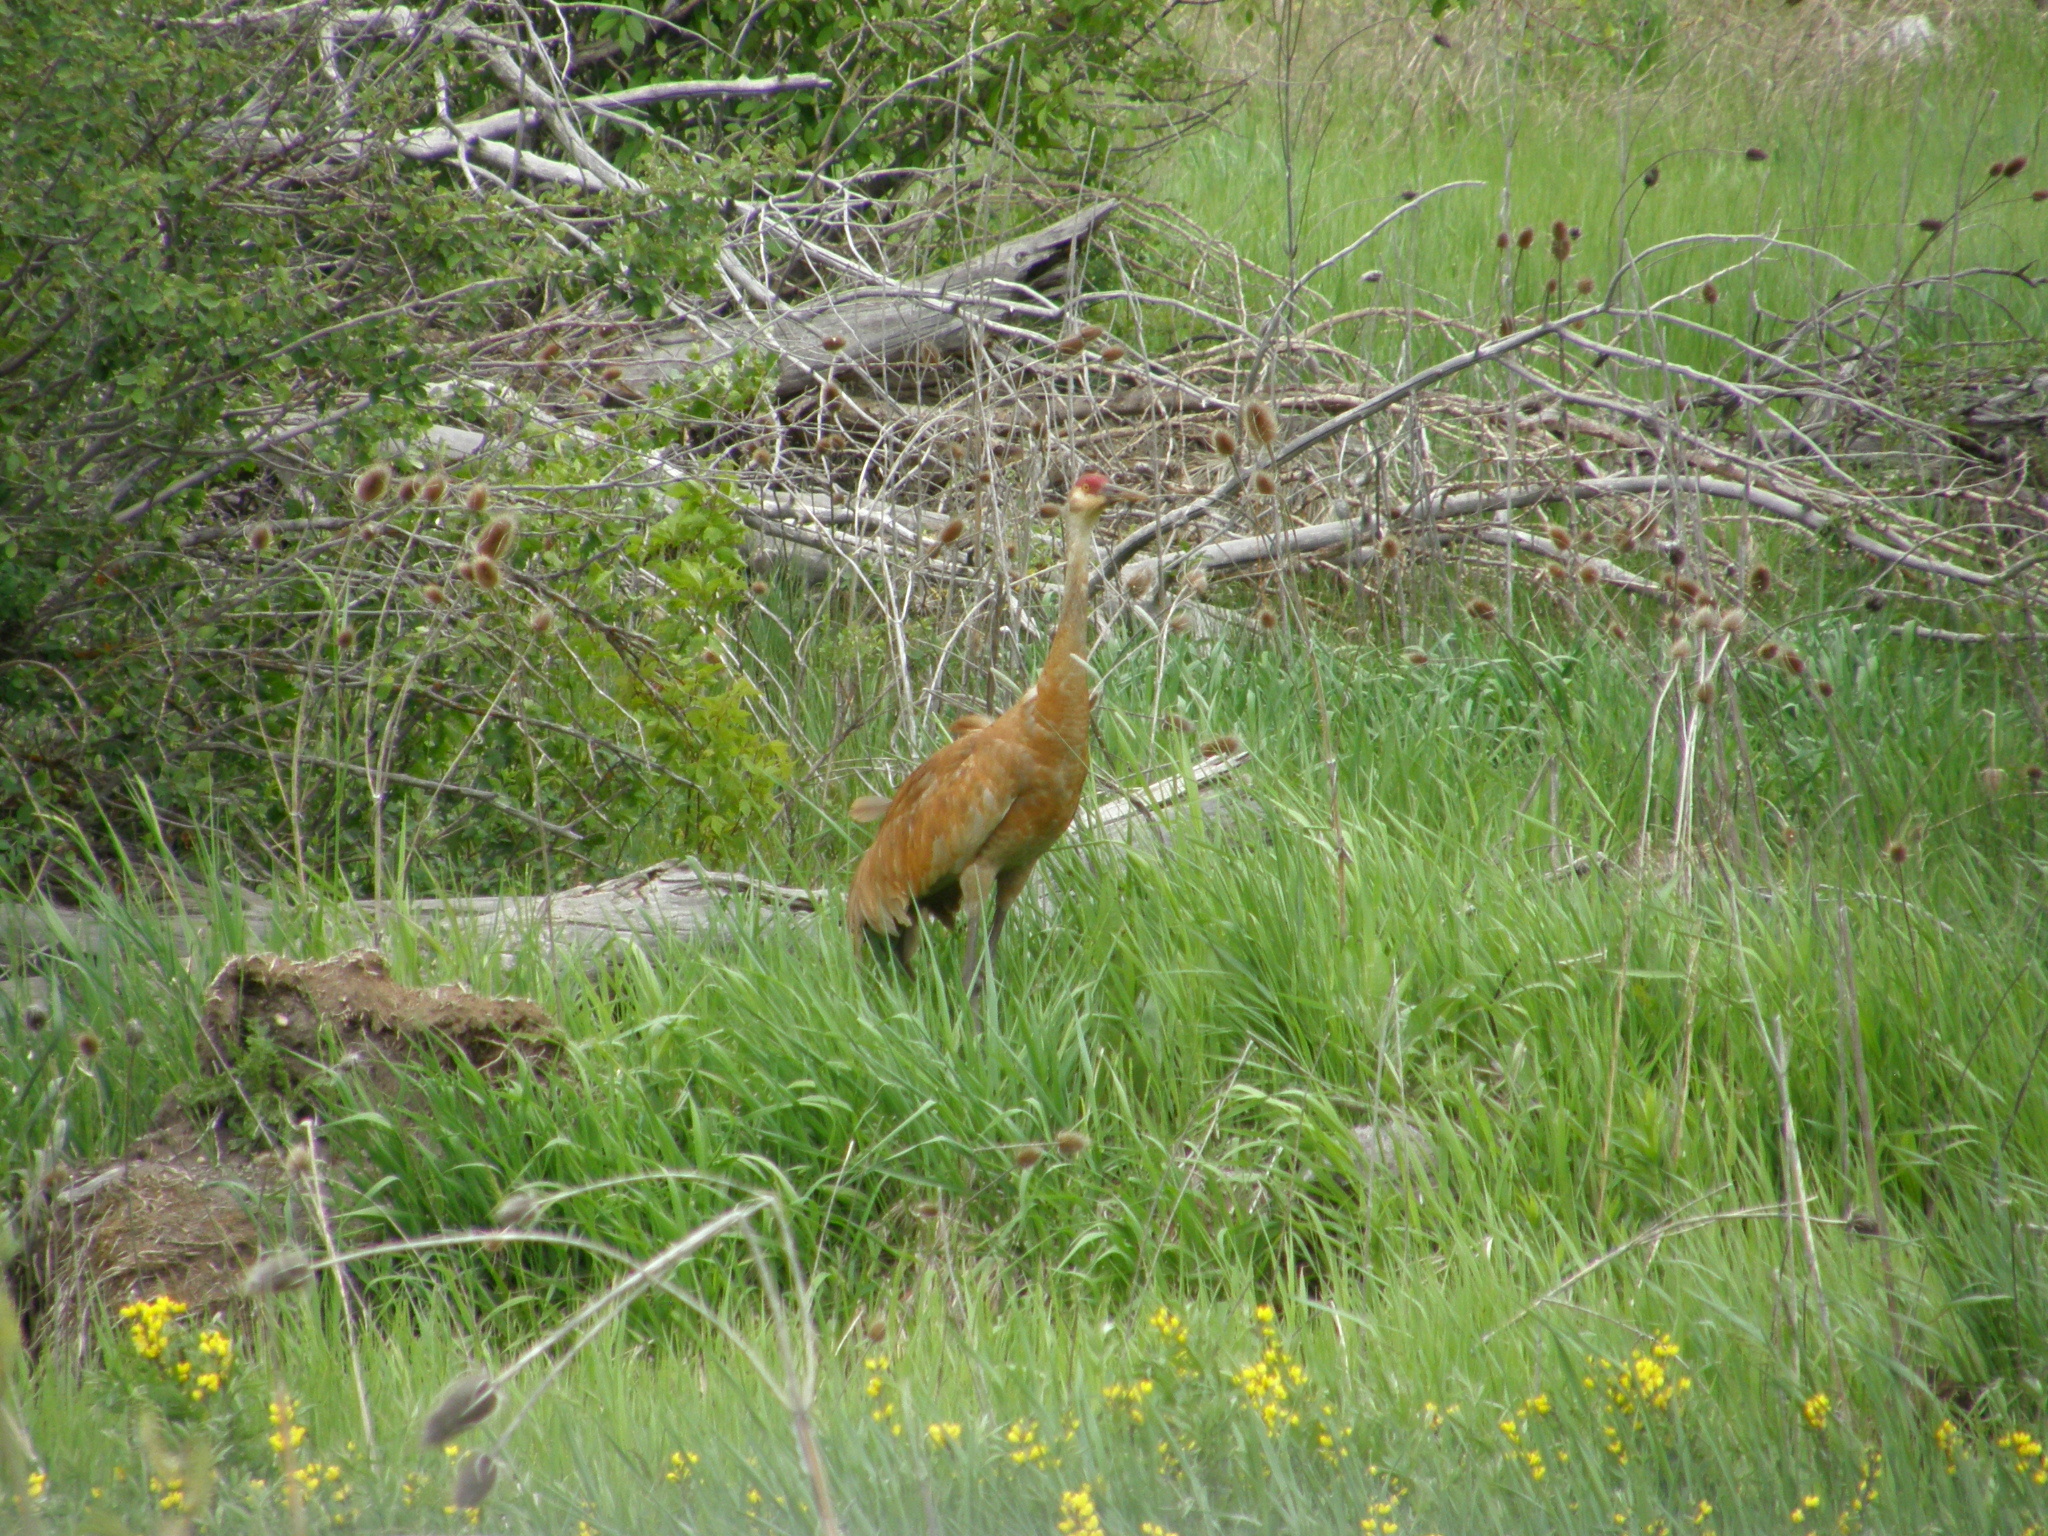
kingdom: Animalia
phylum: Chordata
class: Aves
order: Gruiformes
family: Gruidae
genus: Grus
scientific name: Grus canadensis
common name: Sandhill crane
